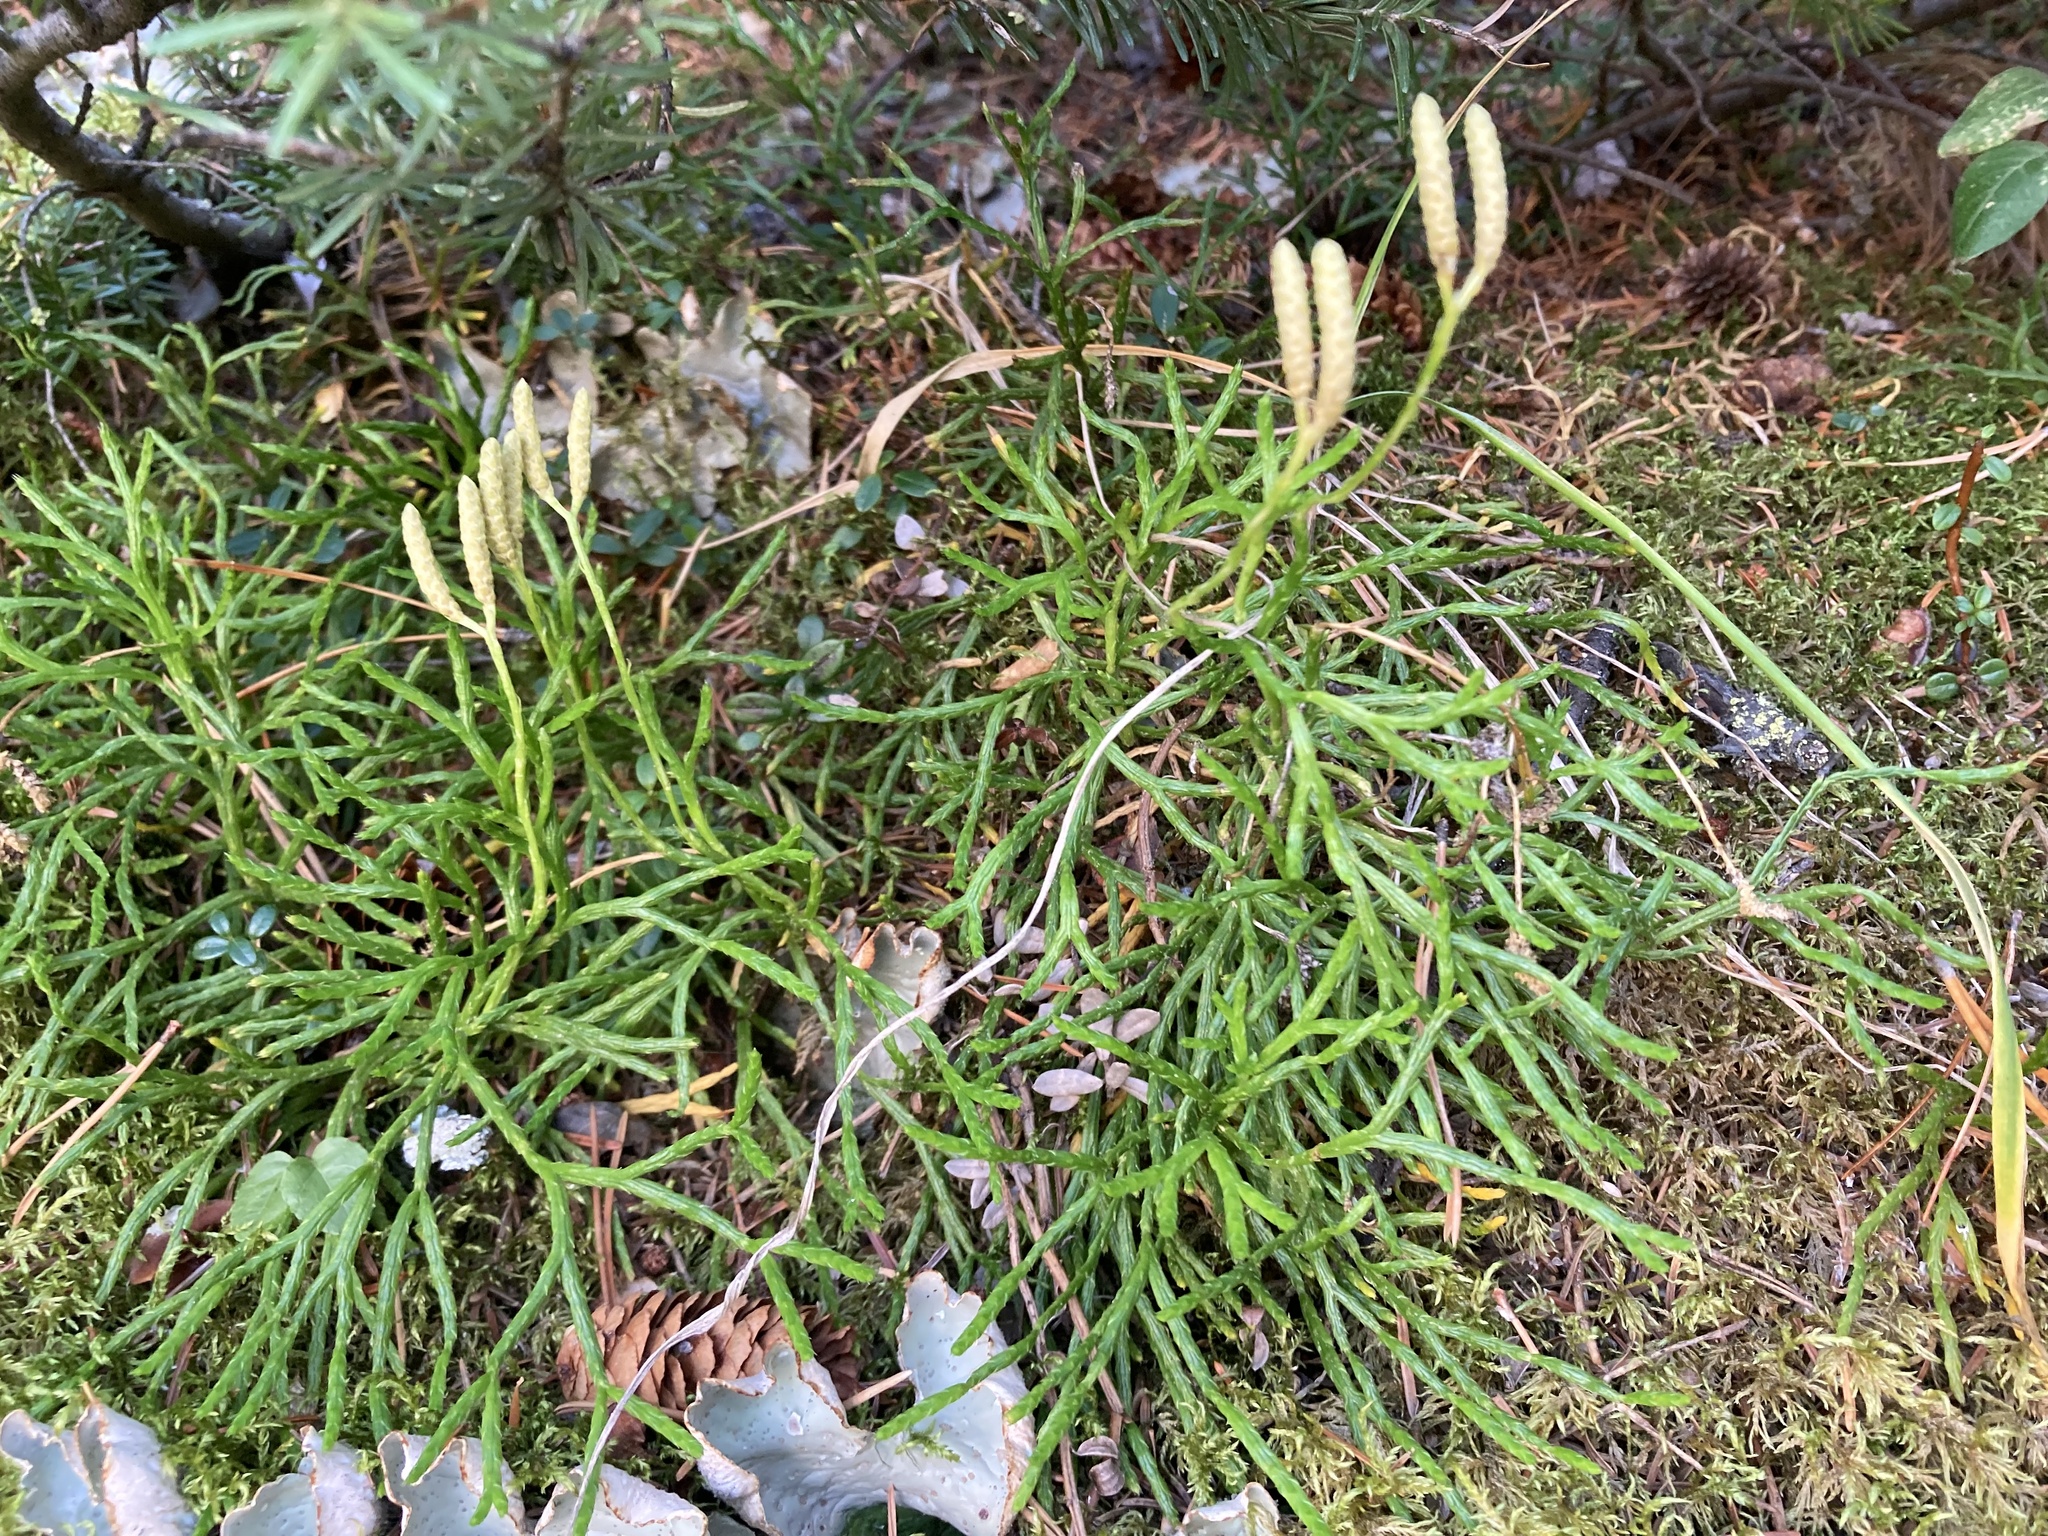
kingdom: Plantae
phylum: Tracheophyta
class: Lycopodiopsida
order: Lycopodiales
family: Lycopodiaceae
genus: Diphasiastrum
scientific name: Diphasiastrum complanatum
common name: Northern running-pine
